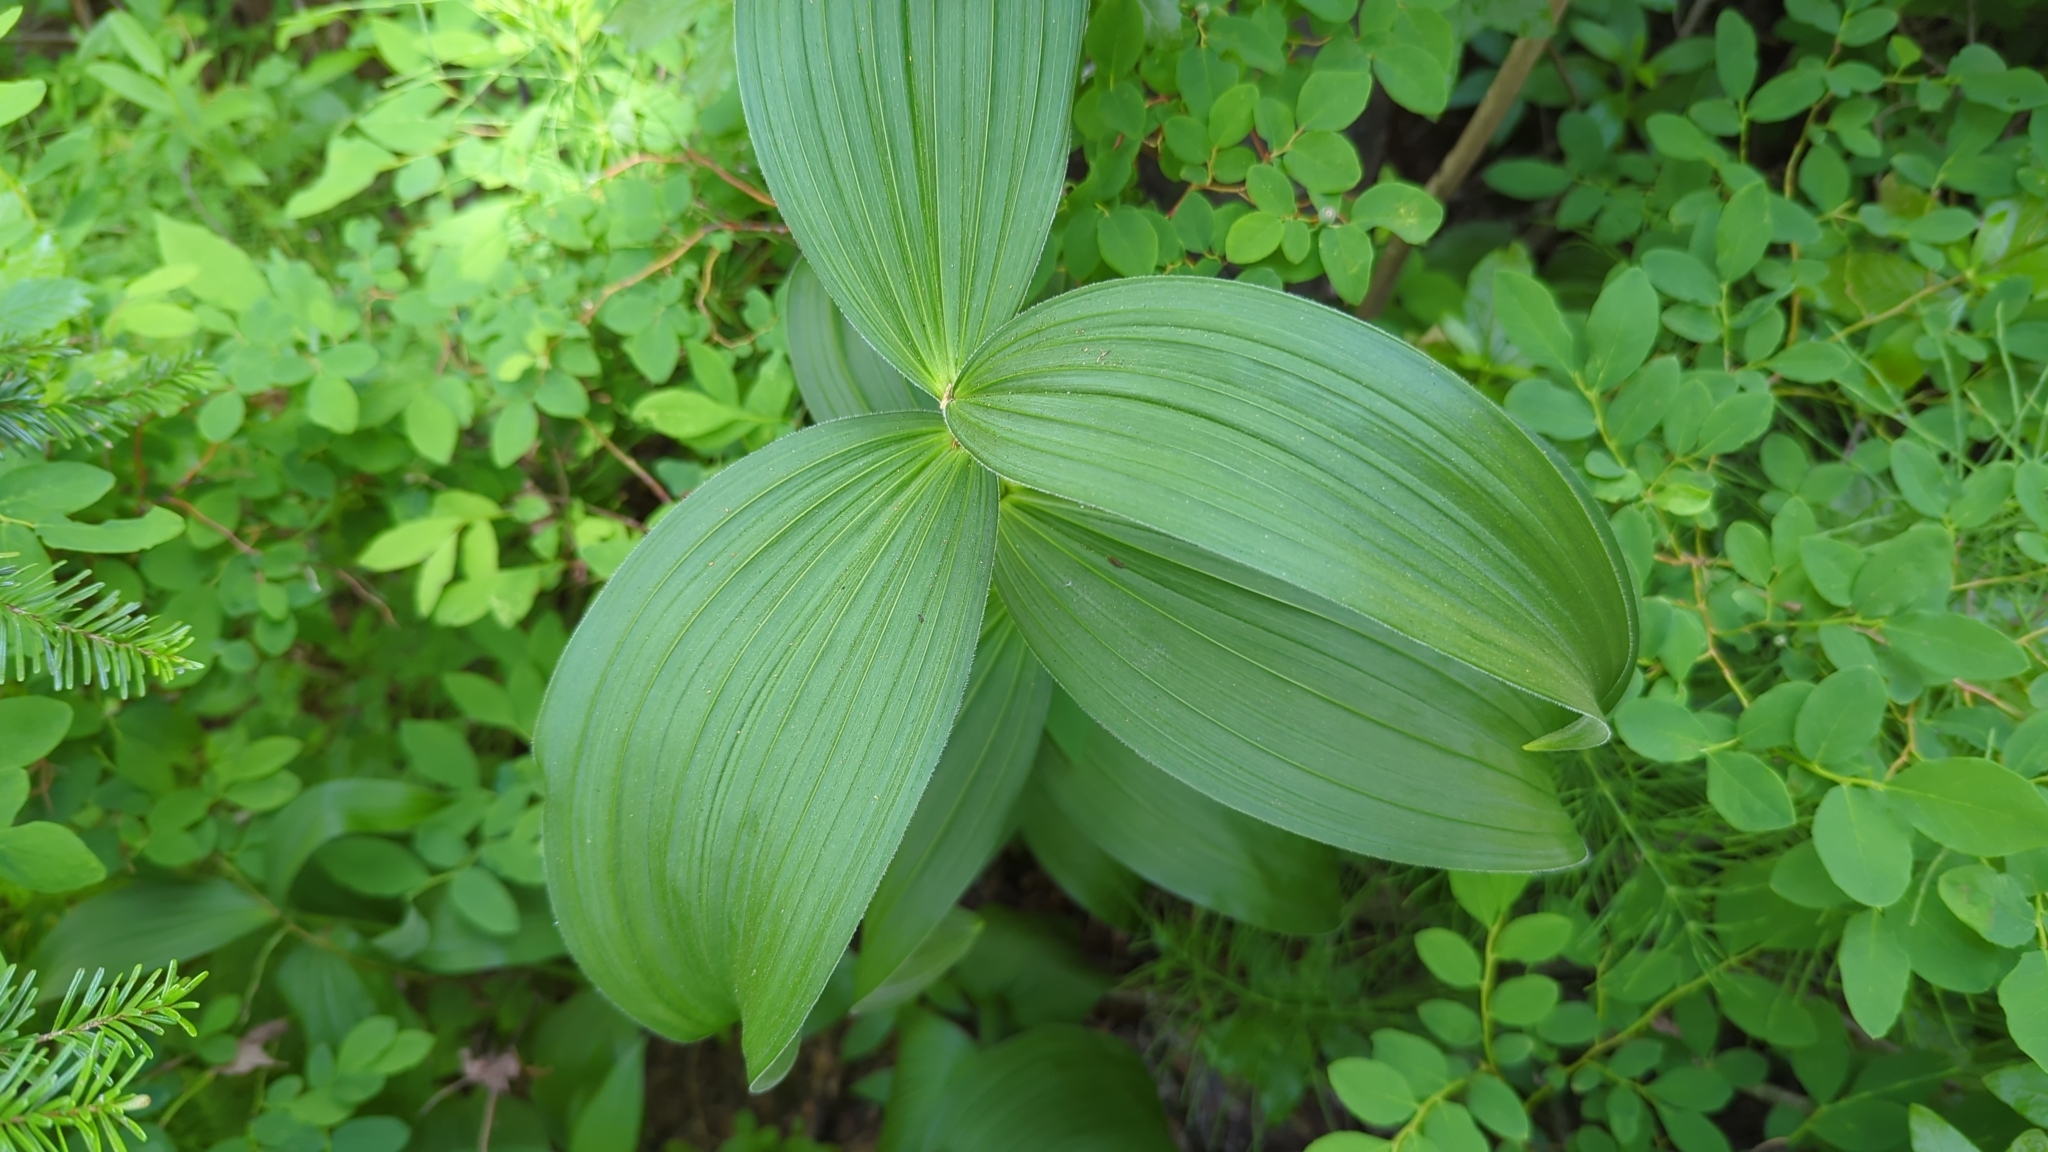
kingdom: Plantae
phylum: Tracheophyta
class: Liliopsida
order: Liliales
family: Melanthiaceae
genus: Veratrum
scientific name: Veratrum viride
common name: American false hellebore
